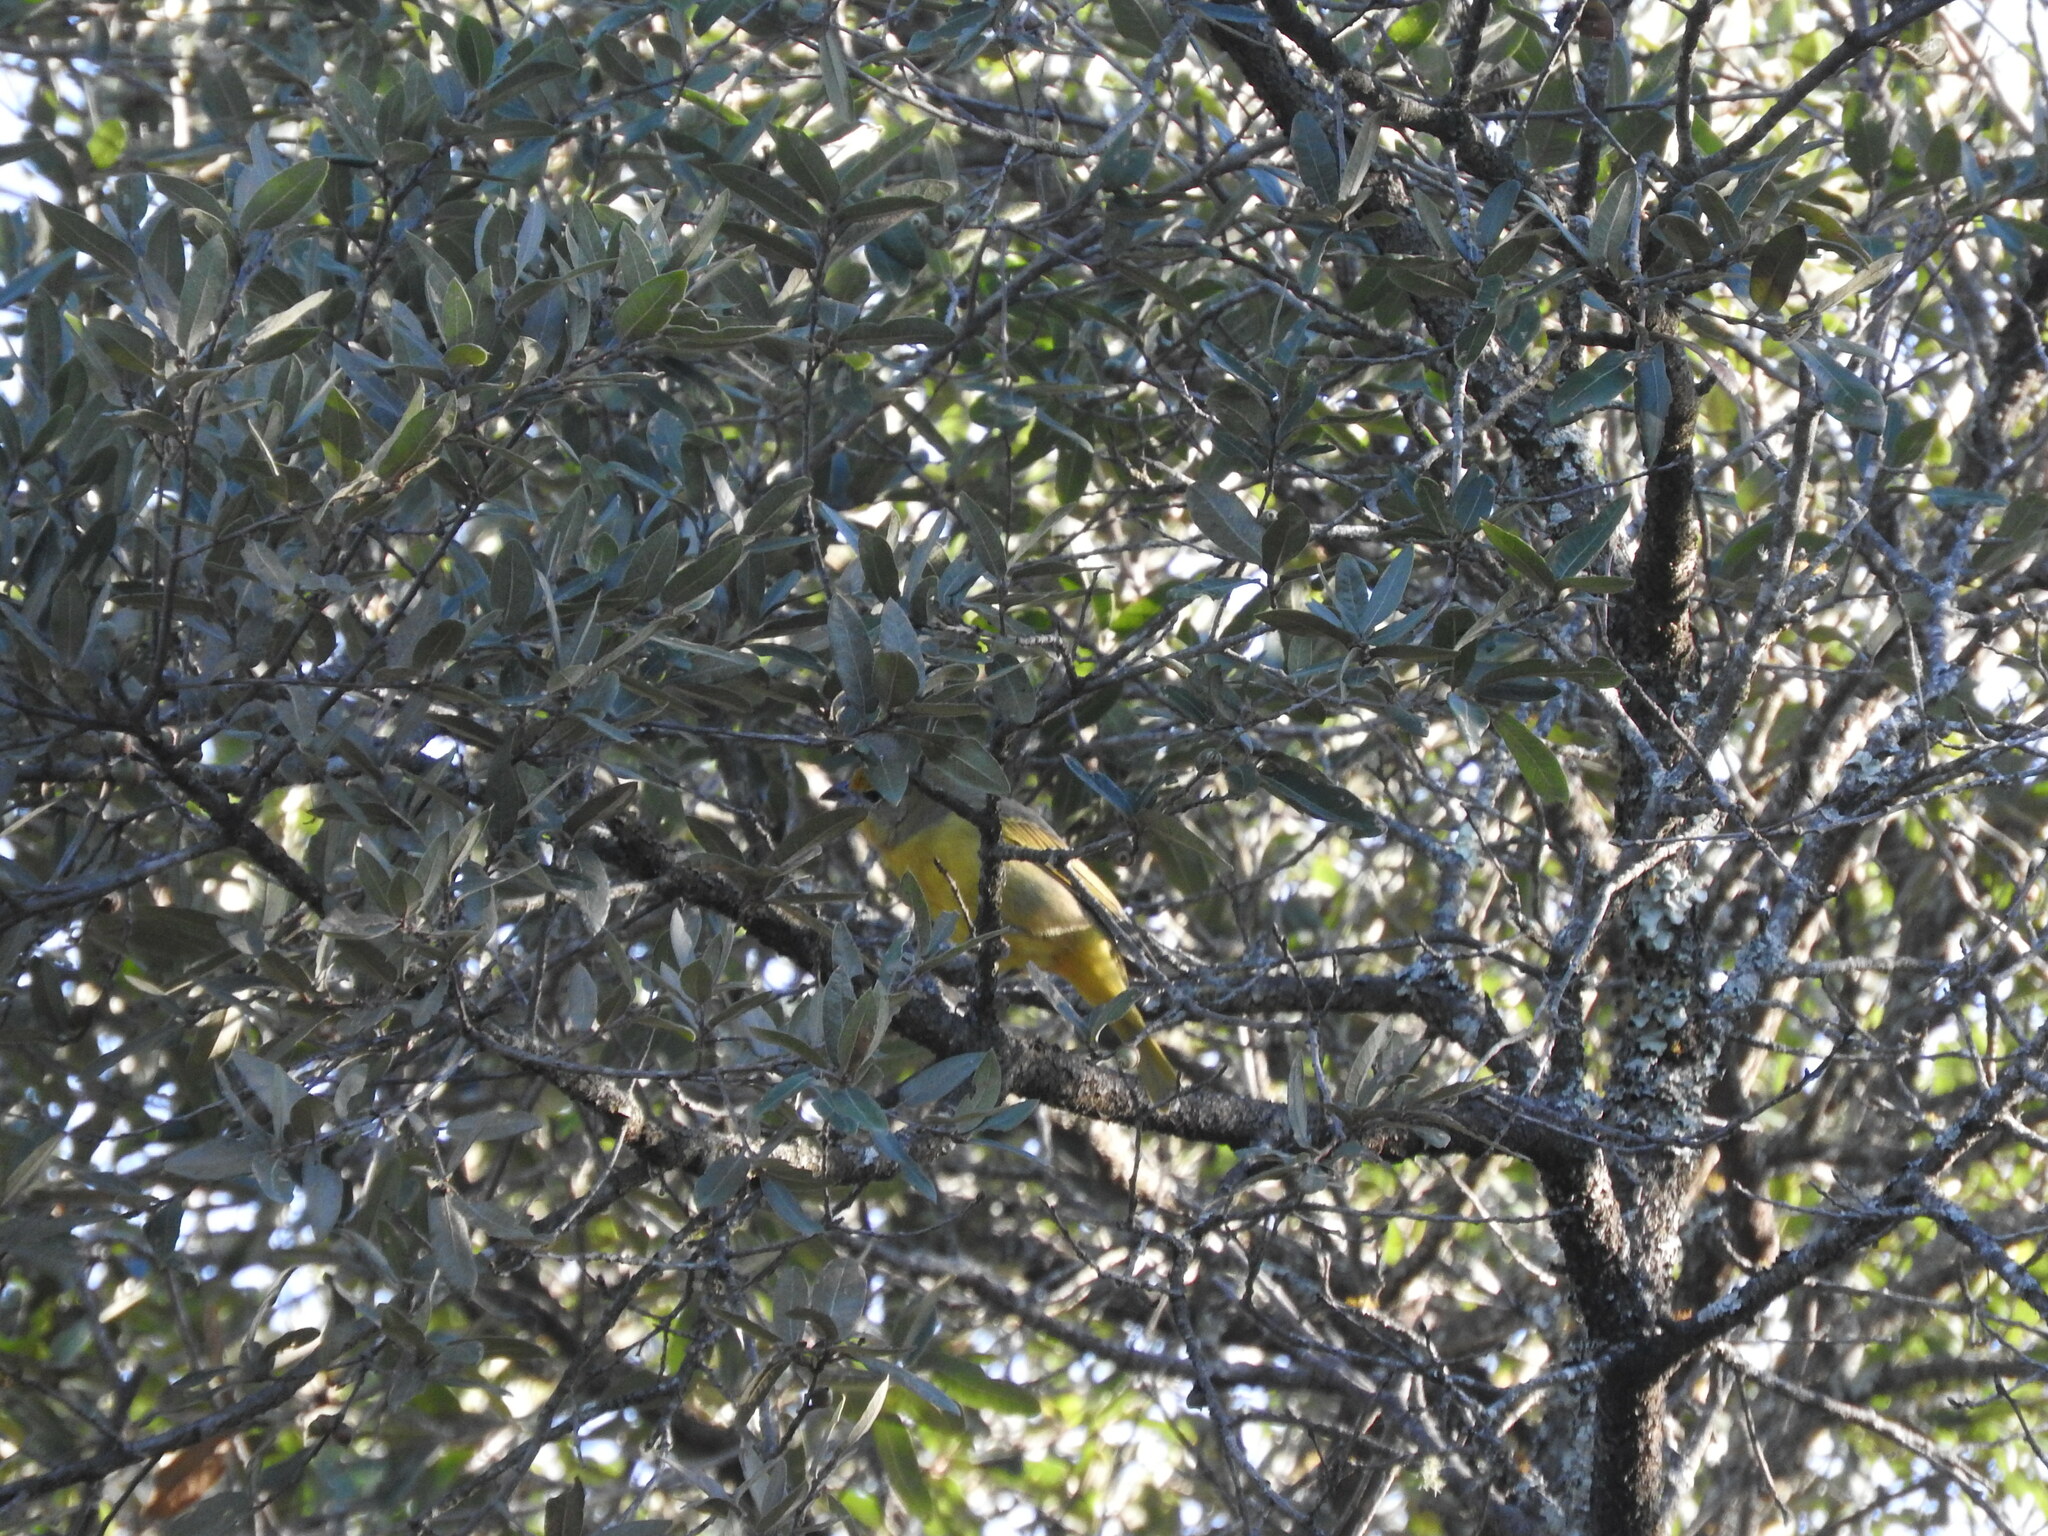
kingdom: Animalia
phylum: Chordata
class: Aves
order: Passeriformes
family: Cardinalidae
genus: Piranga
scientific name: Piranga flava
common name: Red tanager
